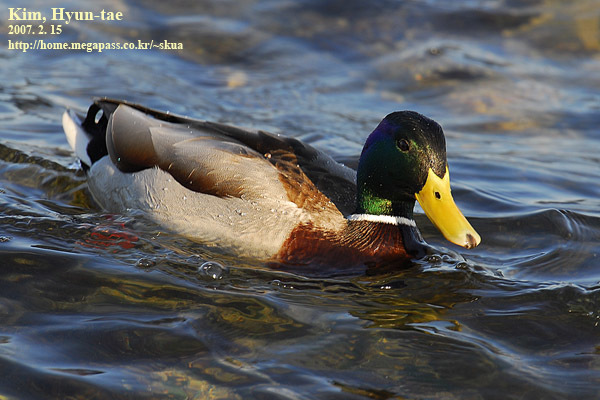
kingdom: Animalia
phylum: Chordata
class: Aves
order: Anseriformes
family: Anatidae
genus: Anas
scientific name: Anas platyrhynchos
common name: Mallard
